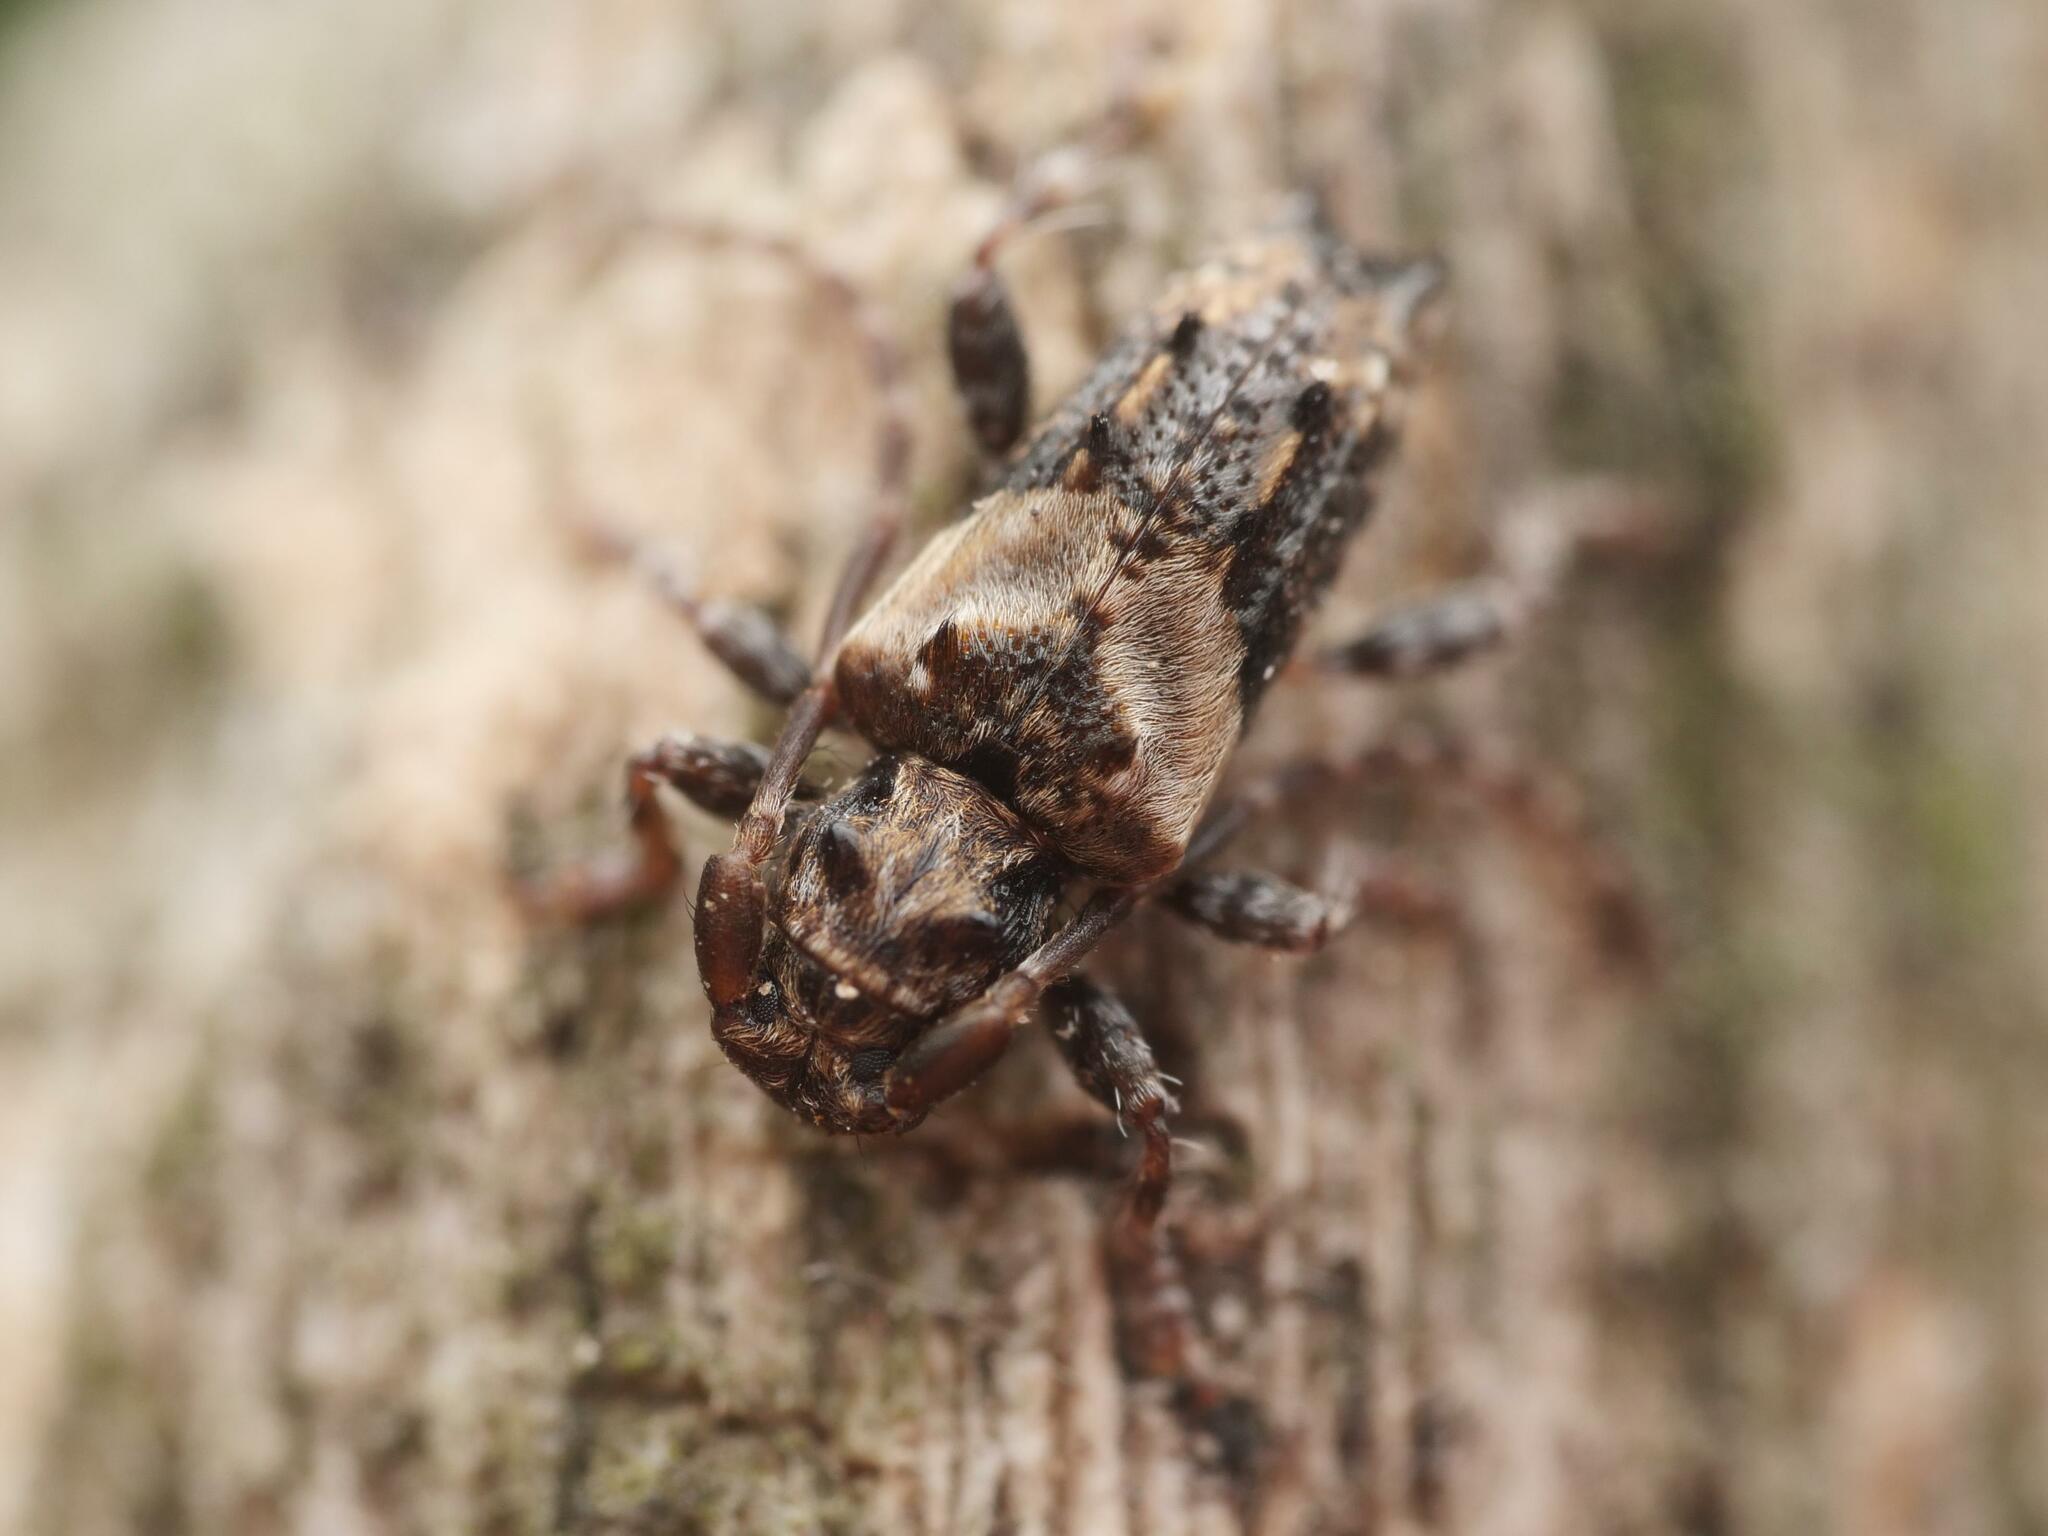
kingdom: Animalia
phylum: Arthropoda
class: Insecta
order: Coleoptera
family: Cerambycidae
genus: Pogonocherus
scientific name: Pogonocherus hispidus
